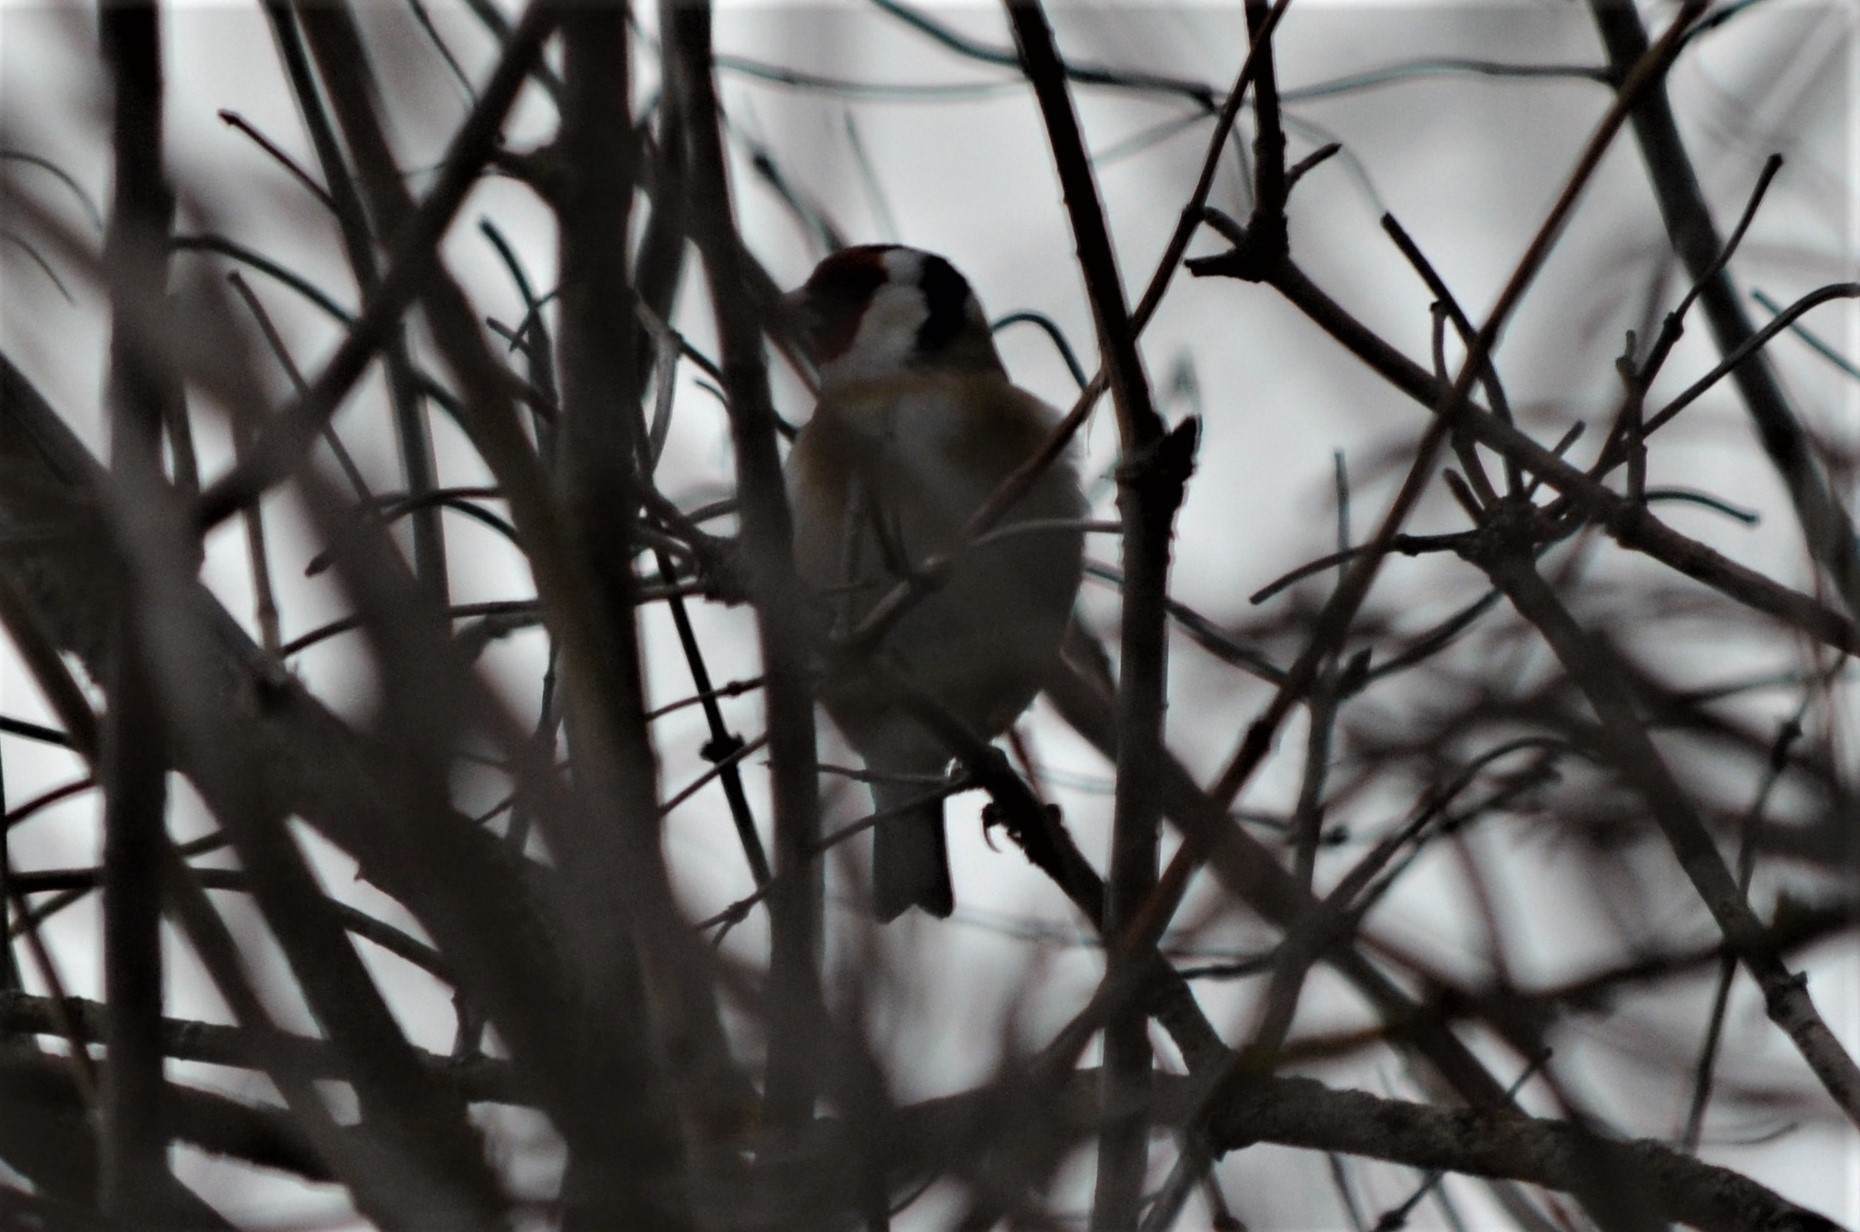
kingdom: Animalia
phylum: Chordata
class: Aves
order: Passeriformes
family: Fringillidae
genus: Carduelis
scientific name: Carduelis carduelis
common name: European goldfinch
